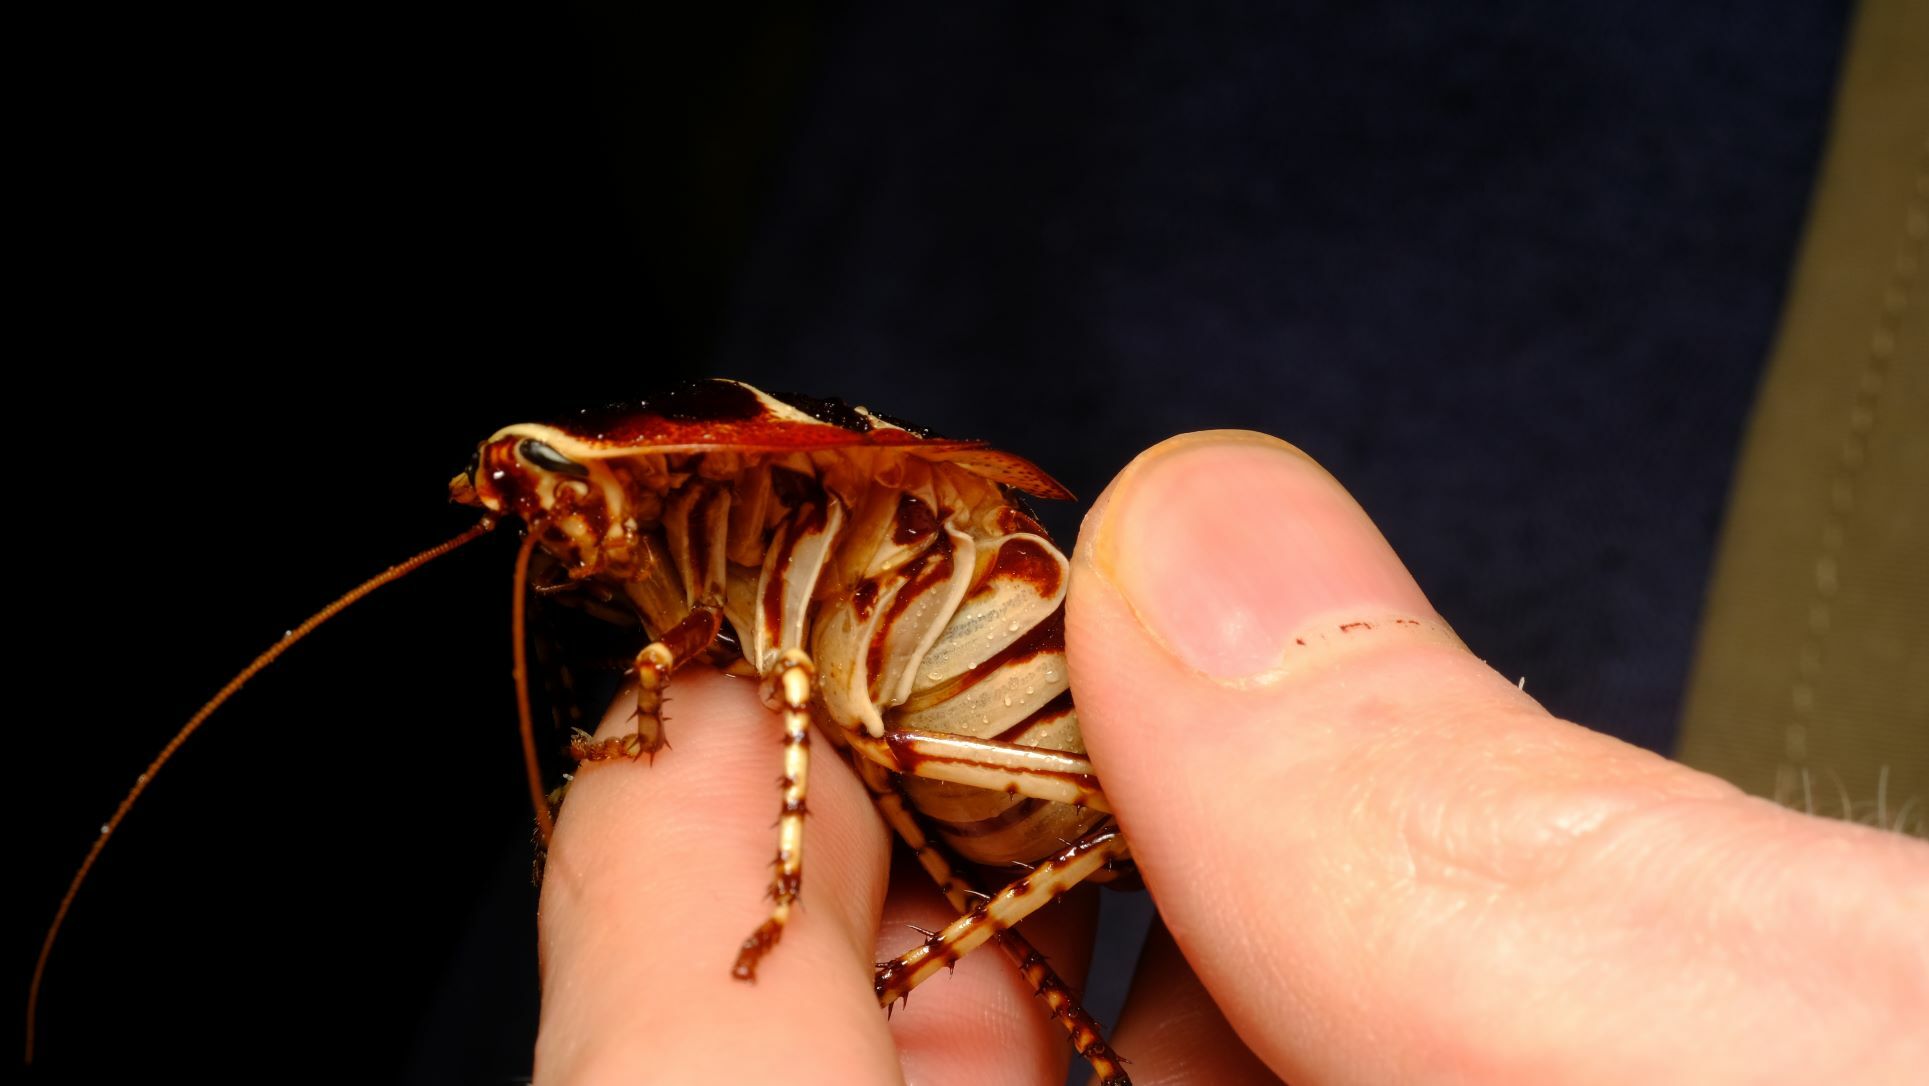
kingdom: Animalia
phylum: Arthropoda
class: Insecta
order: Blattodea
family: Blattidae
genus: Polyzosteria
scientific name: Polyzosteria pulchra
